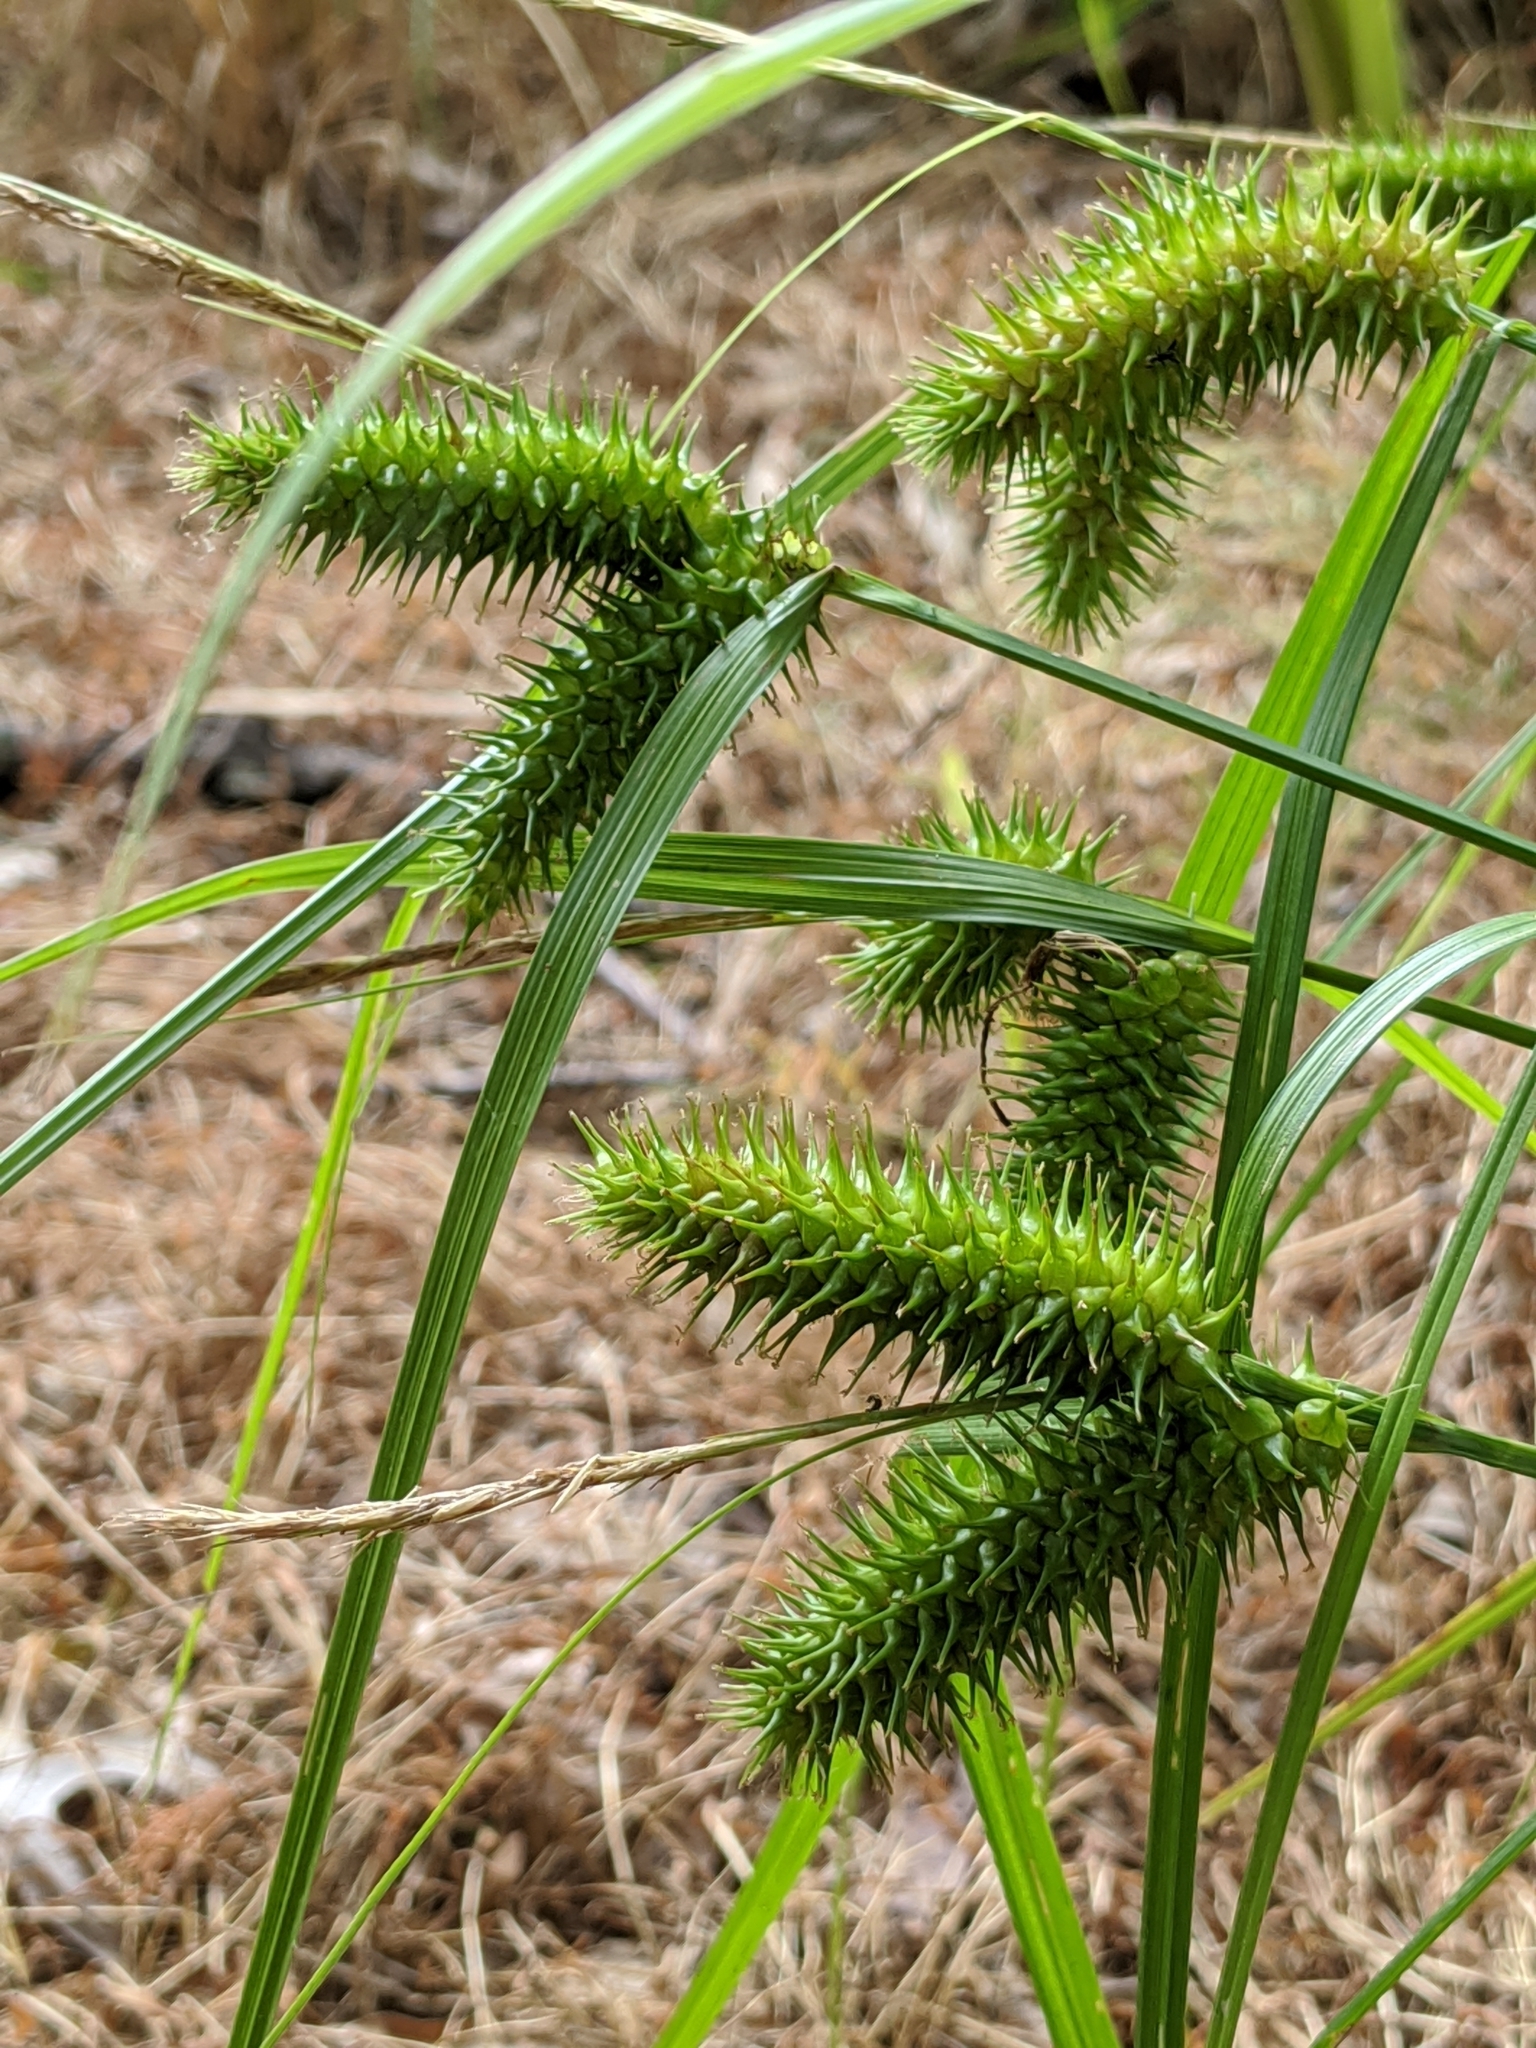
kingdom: Plantae
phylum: Tracheophyta
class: Liliopsida
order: Poales
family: Cyperaceae
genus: Carex
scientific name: Carex lurida
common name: Sallow sedge
